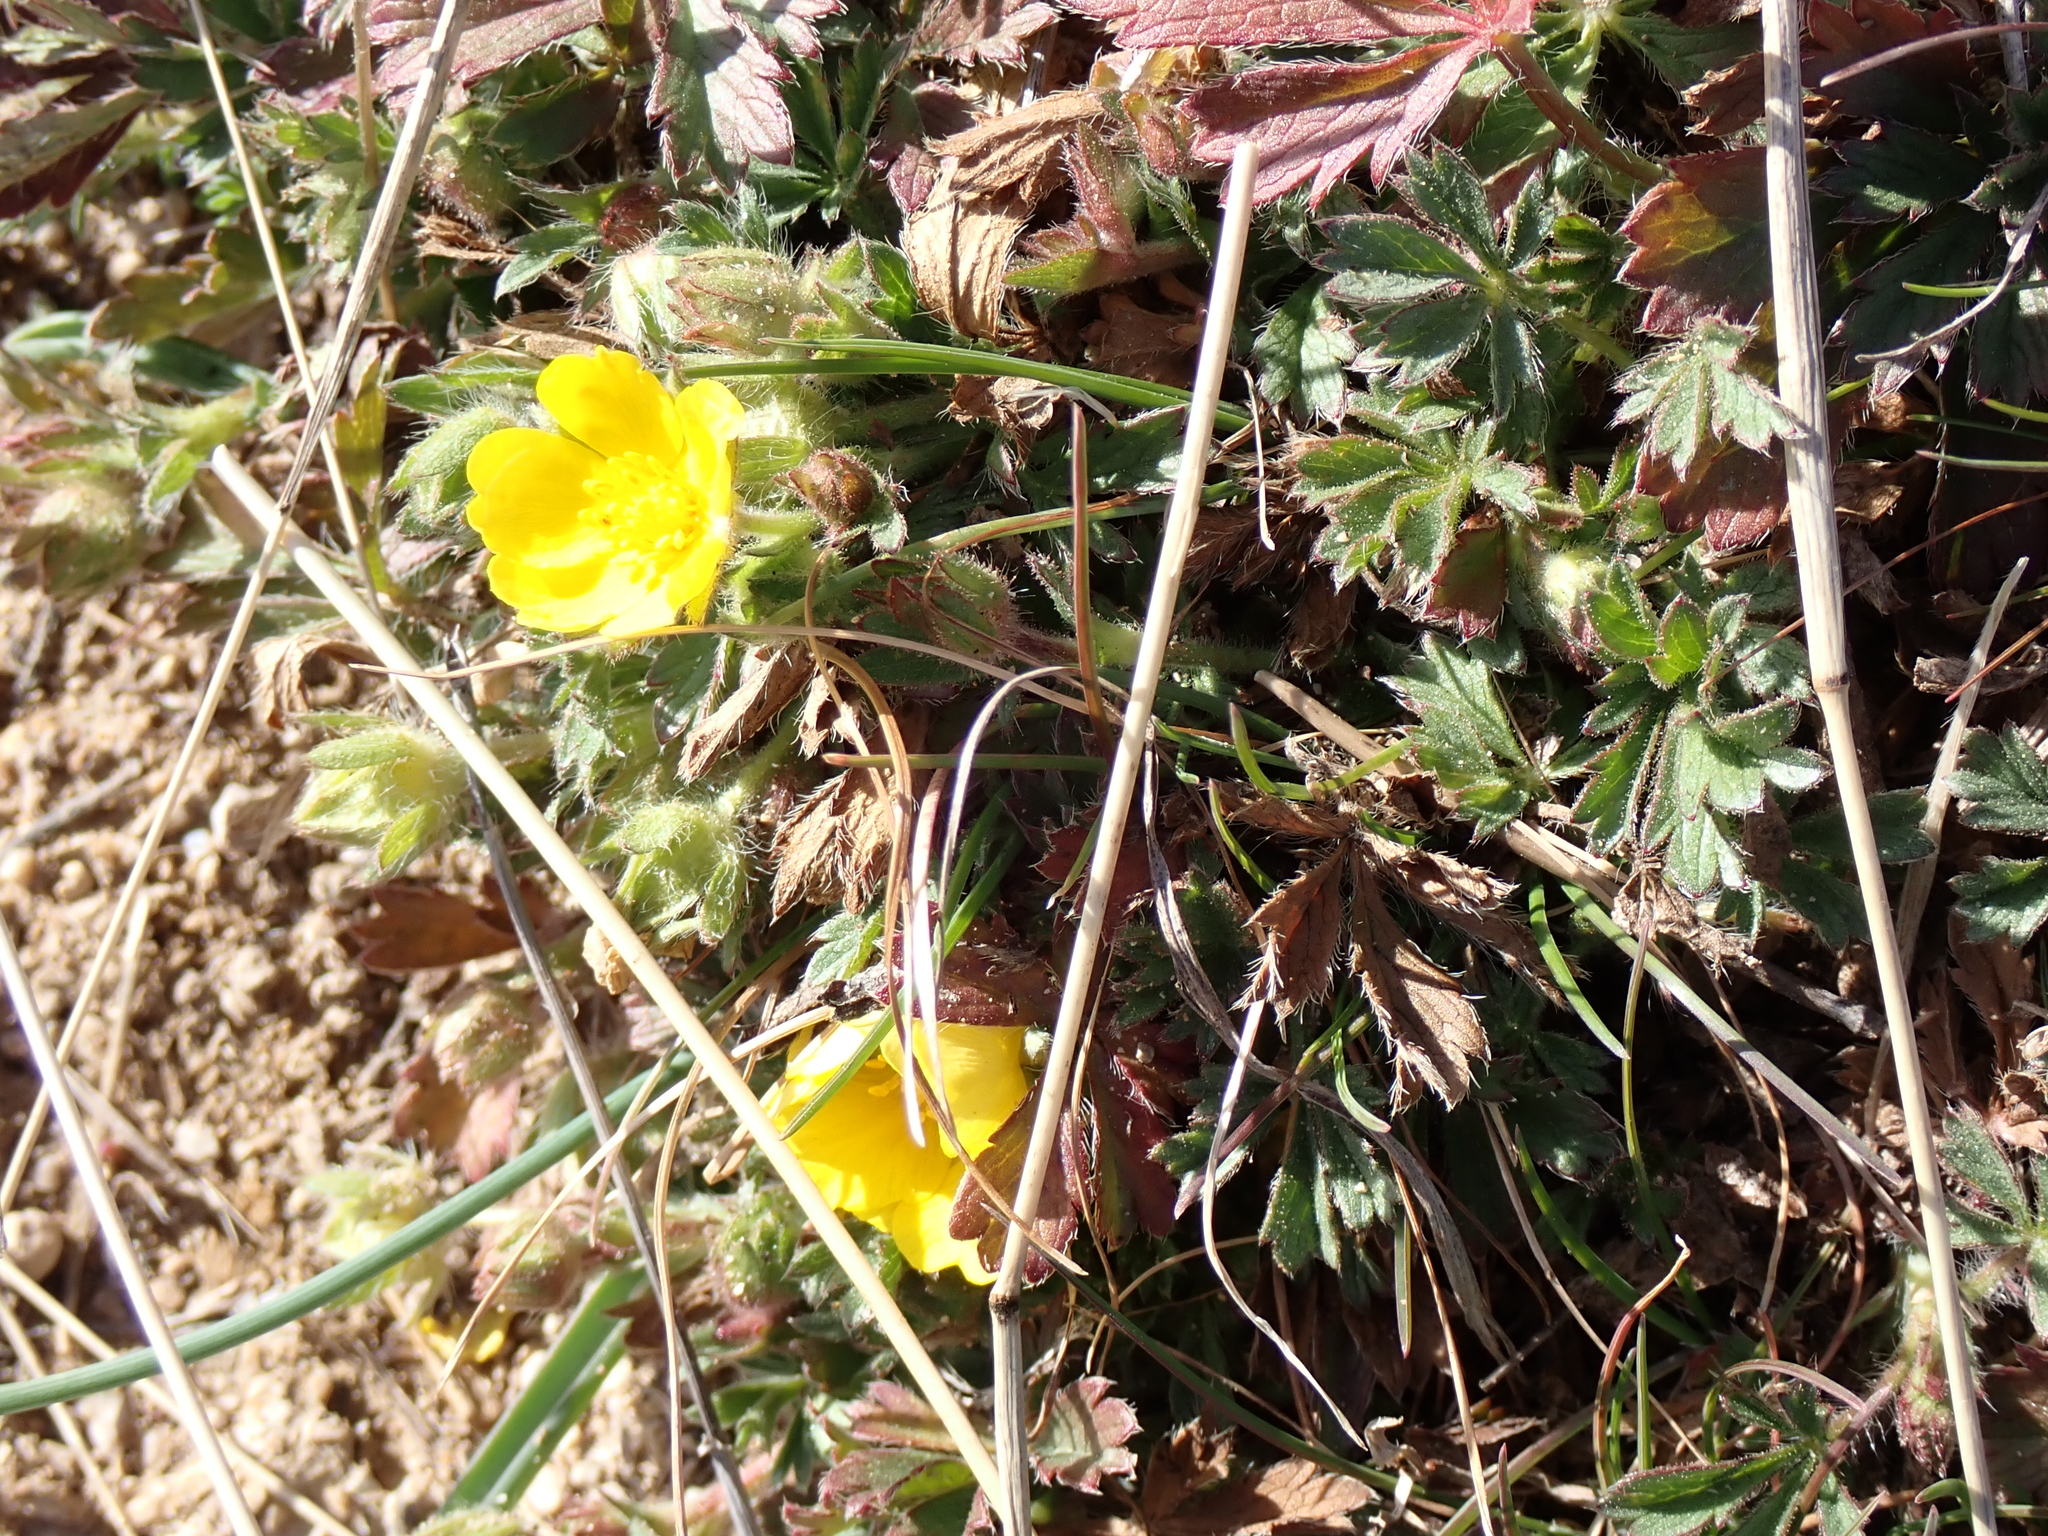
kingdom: Plantae
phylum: Tracheophyta
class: Magnoliopsida
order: Rosales
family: Rosaceae
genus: Potentilla
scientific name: Potentilla verna
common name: Spring cinquefoil
